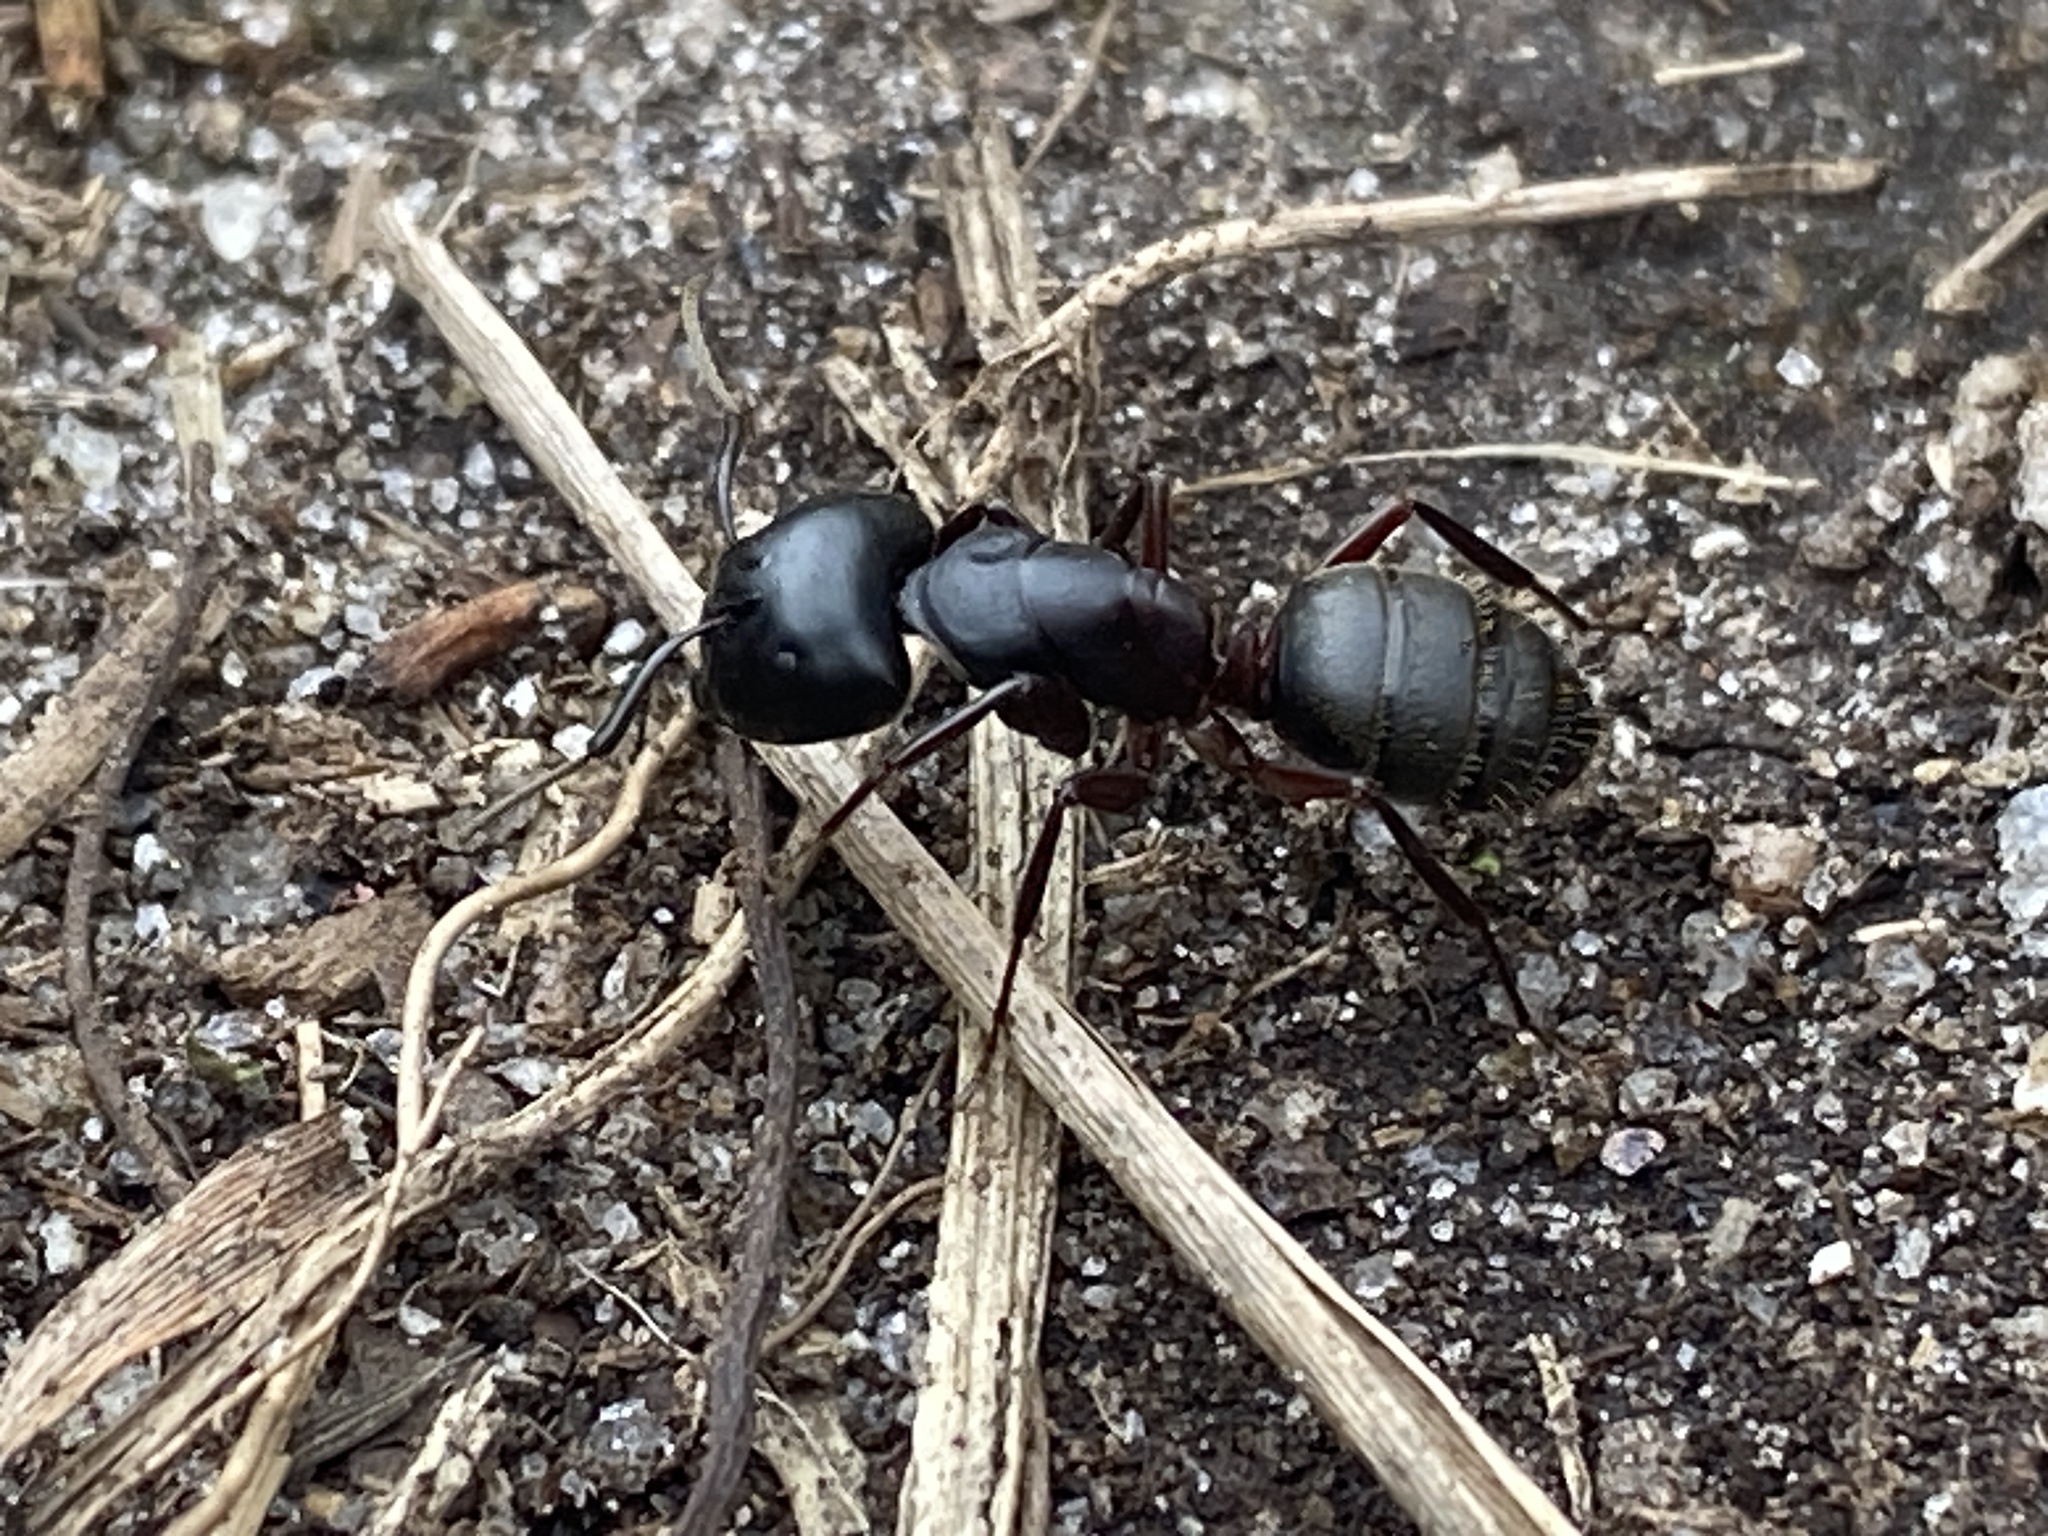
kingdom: Animalia
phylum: Arthropoda
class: Insecta
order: Hymenoptera
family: Formicidae
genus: Camponotus
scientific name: Camponotus herculeanus
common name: Hercules ant
